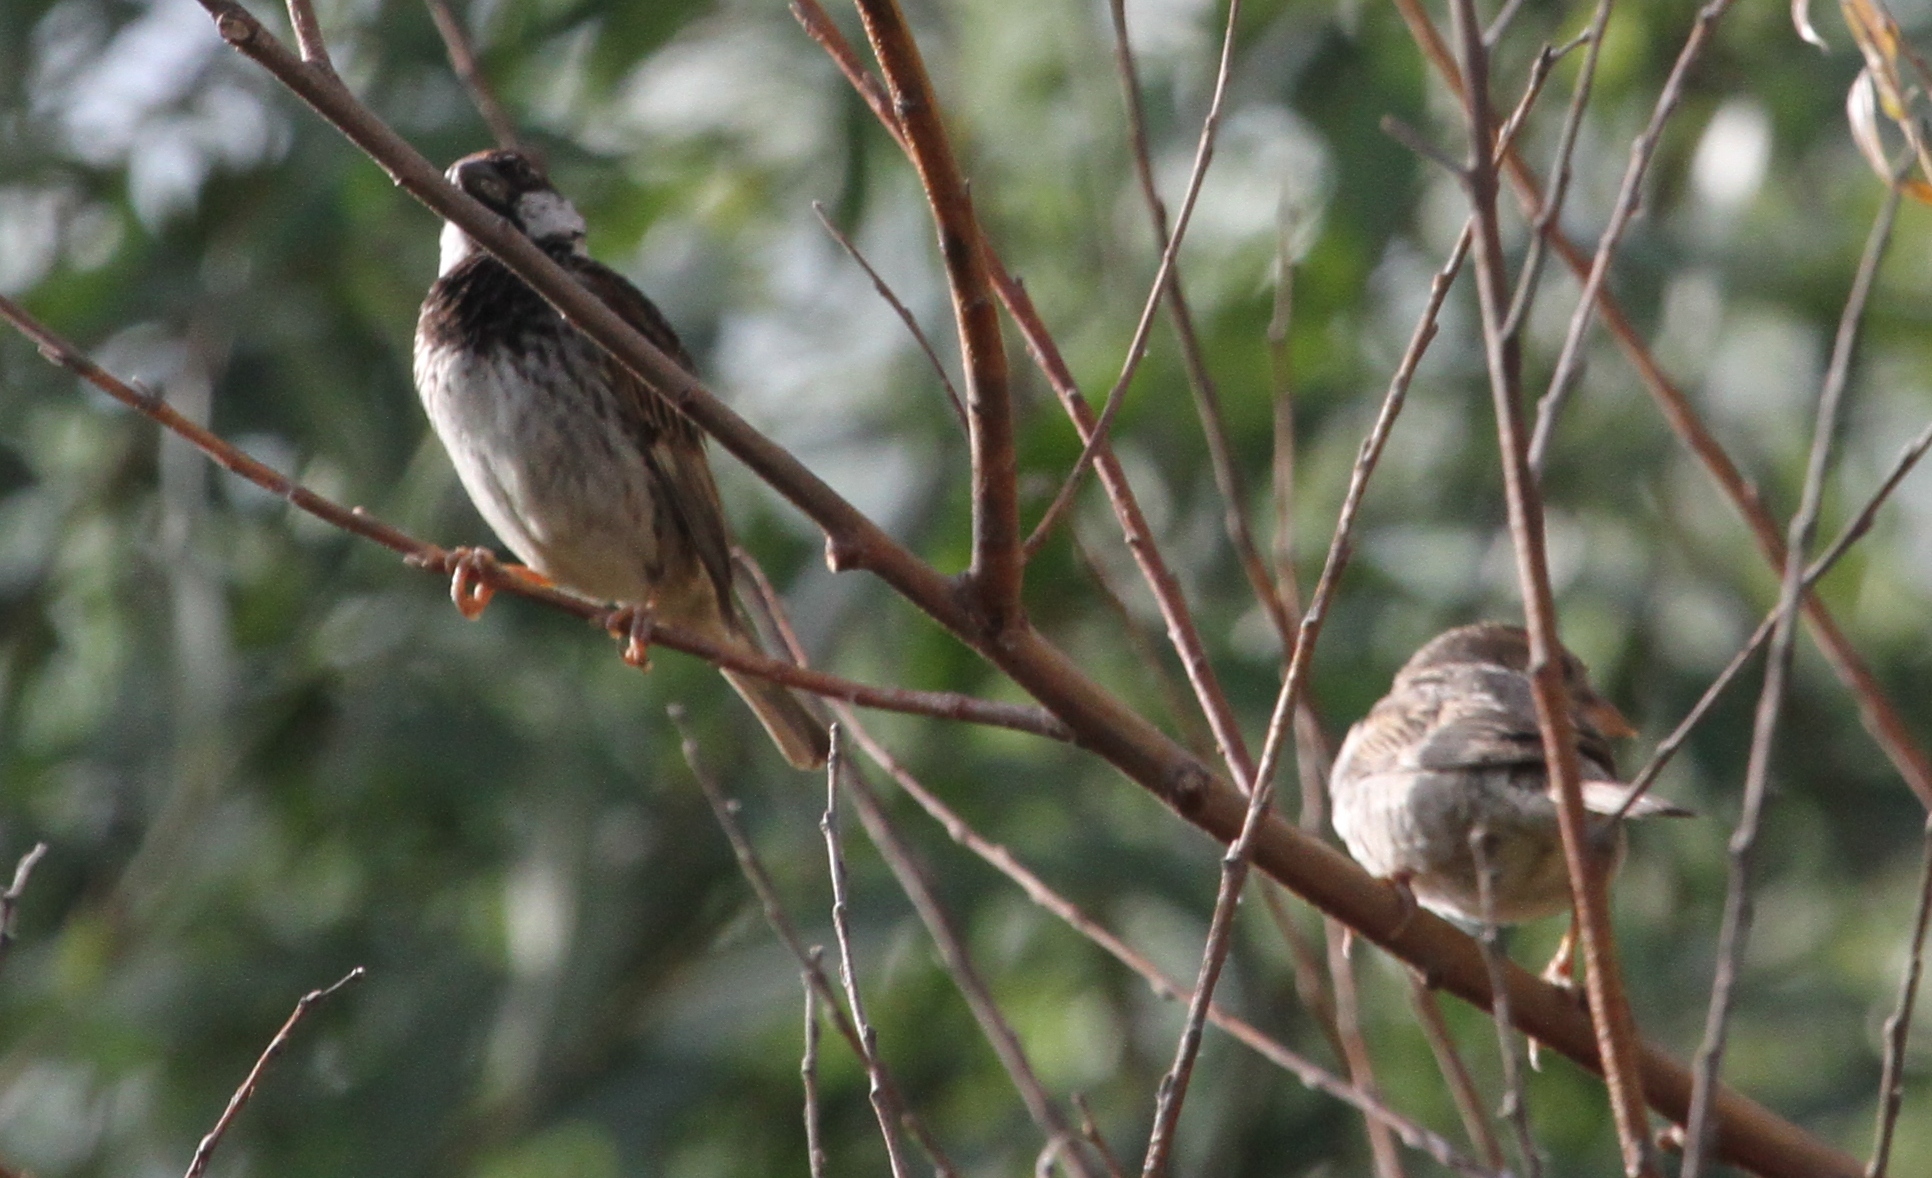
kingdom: Animalia
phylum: Chordata
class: Aves
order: Passeriformes
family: Passeridae
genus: Passer
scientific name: Passer hispaniolensis
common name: Spanish sparrow
